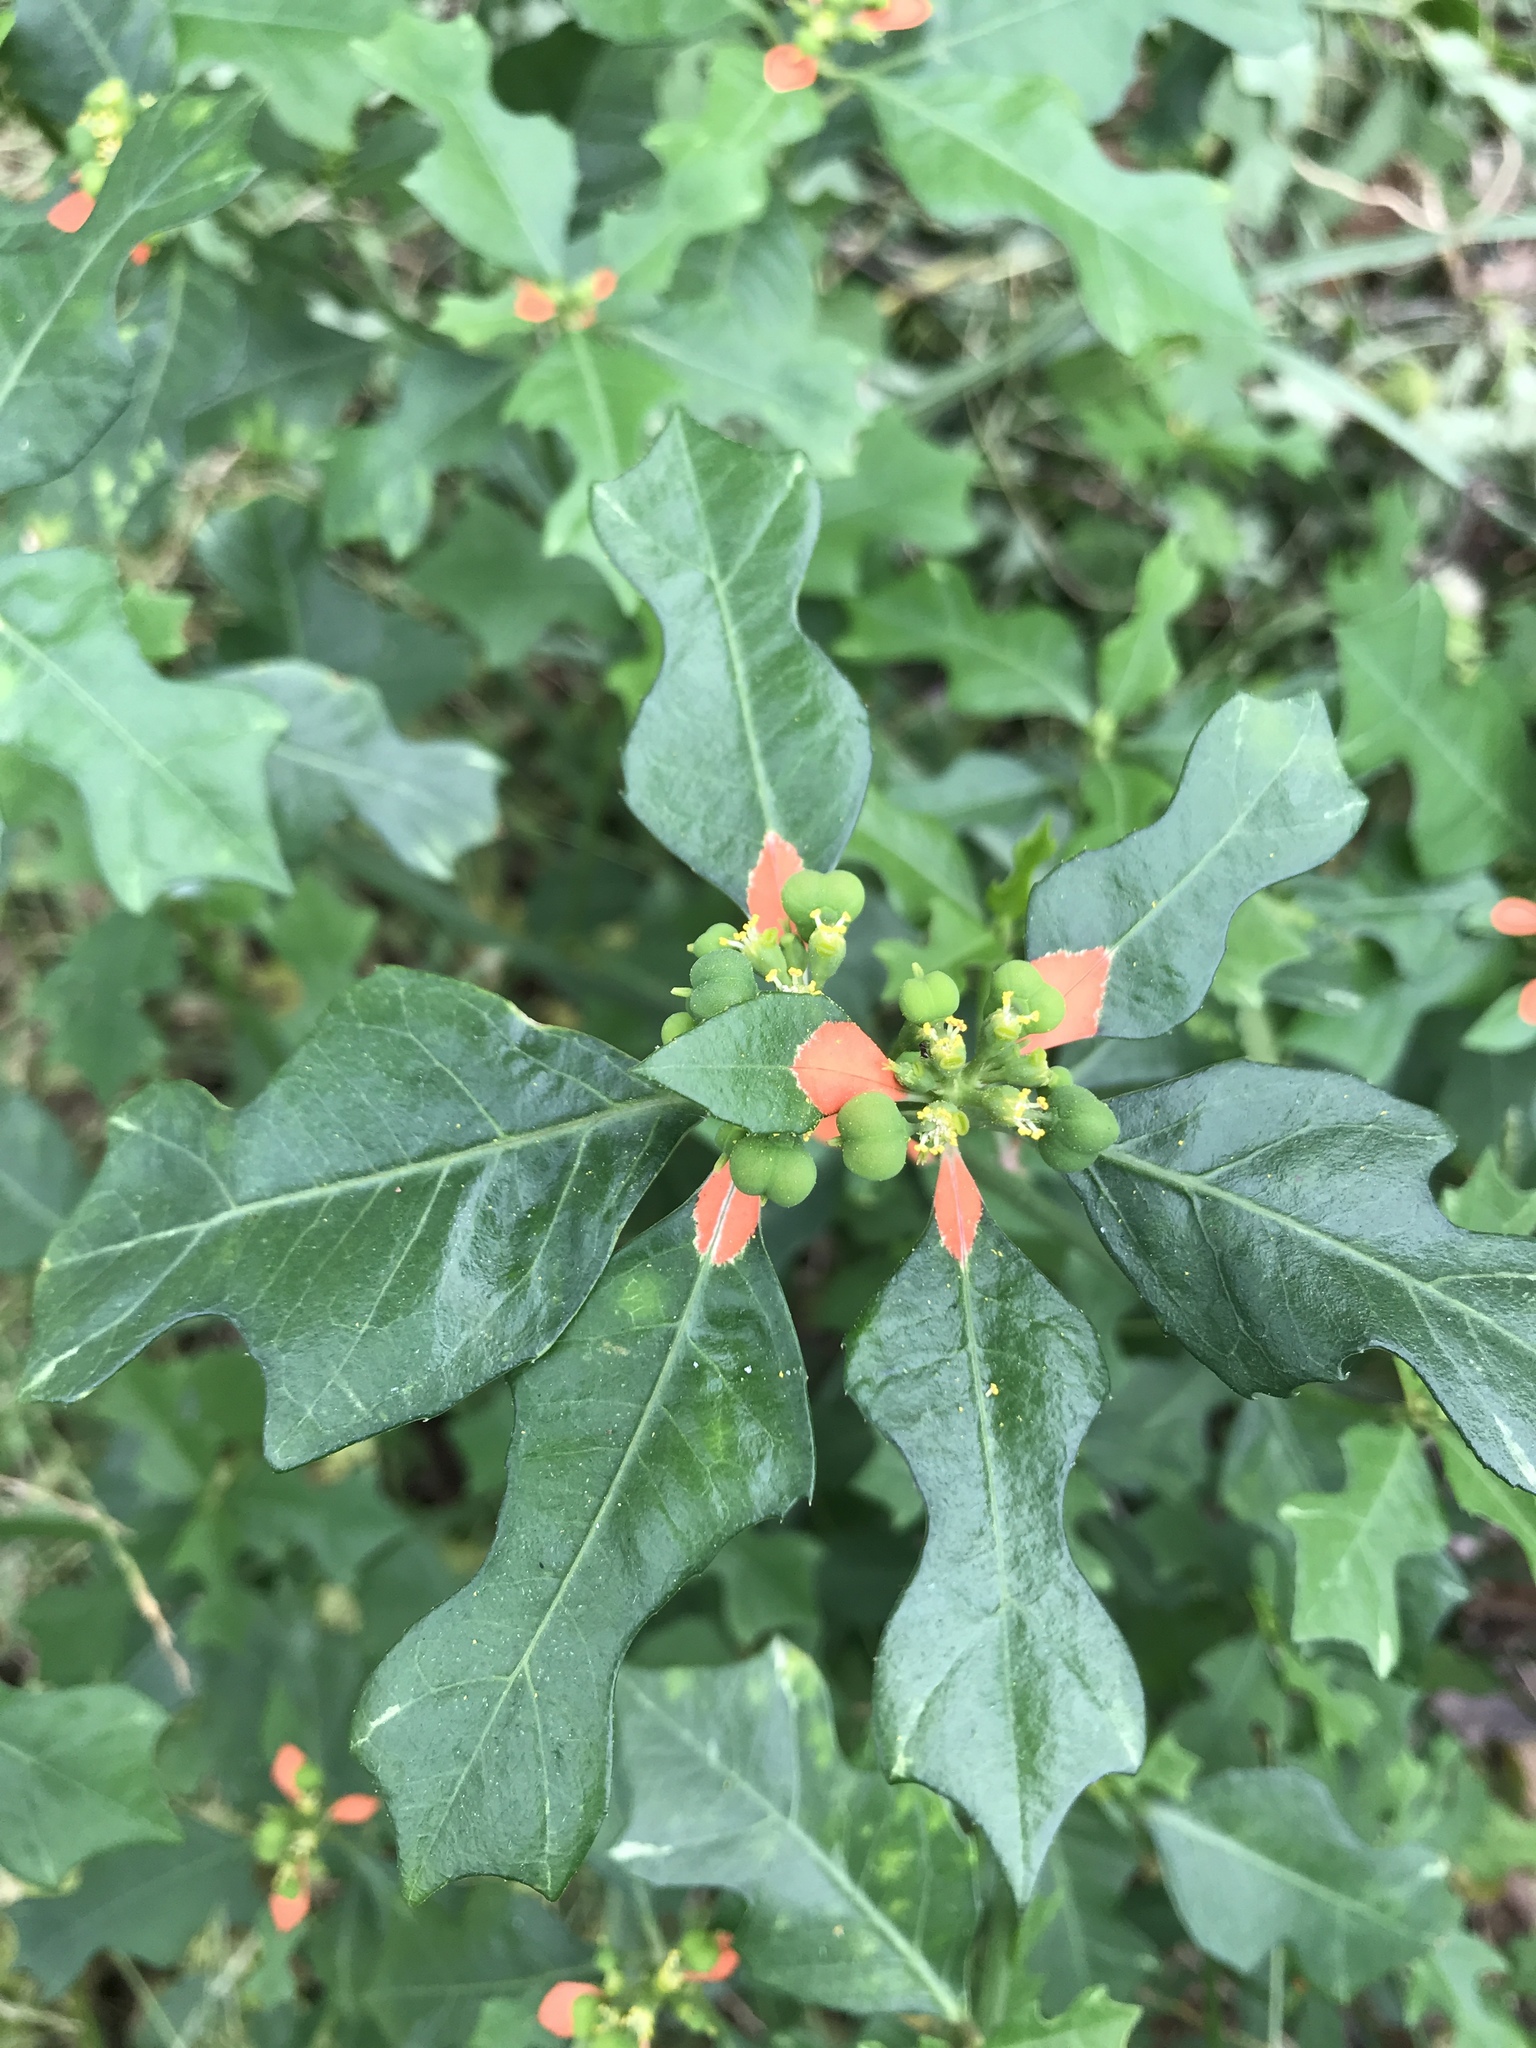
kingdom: Plantae
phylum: Tracheophyta
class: Magnoliopsida
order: Malpighiales
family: Euphorbiaceae
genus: Euphorbia
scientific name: Euphorbia heterophylla
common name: Mexican fireplant
